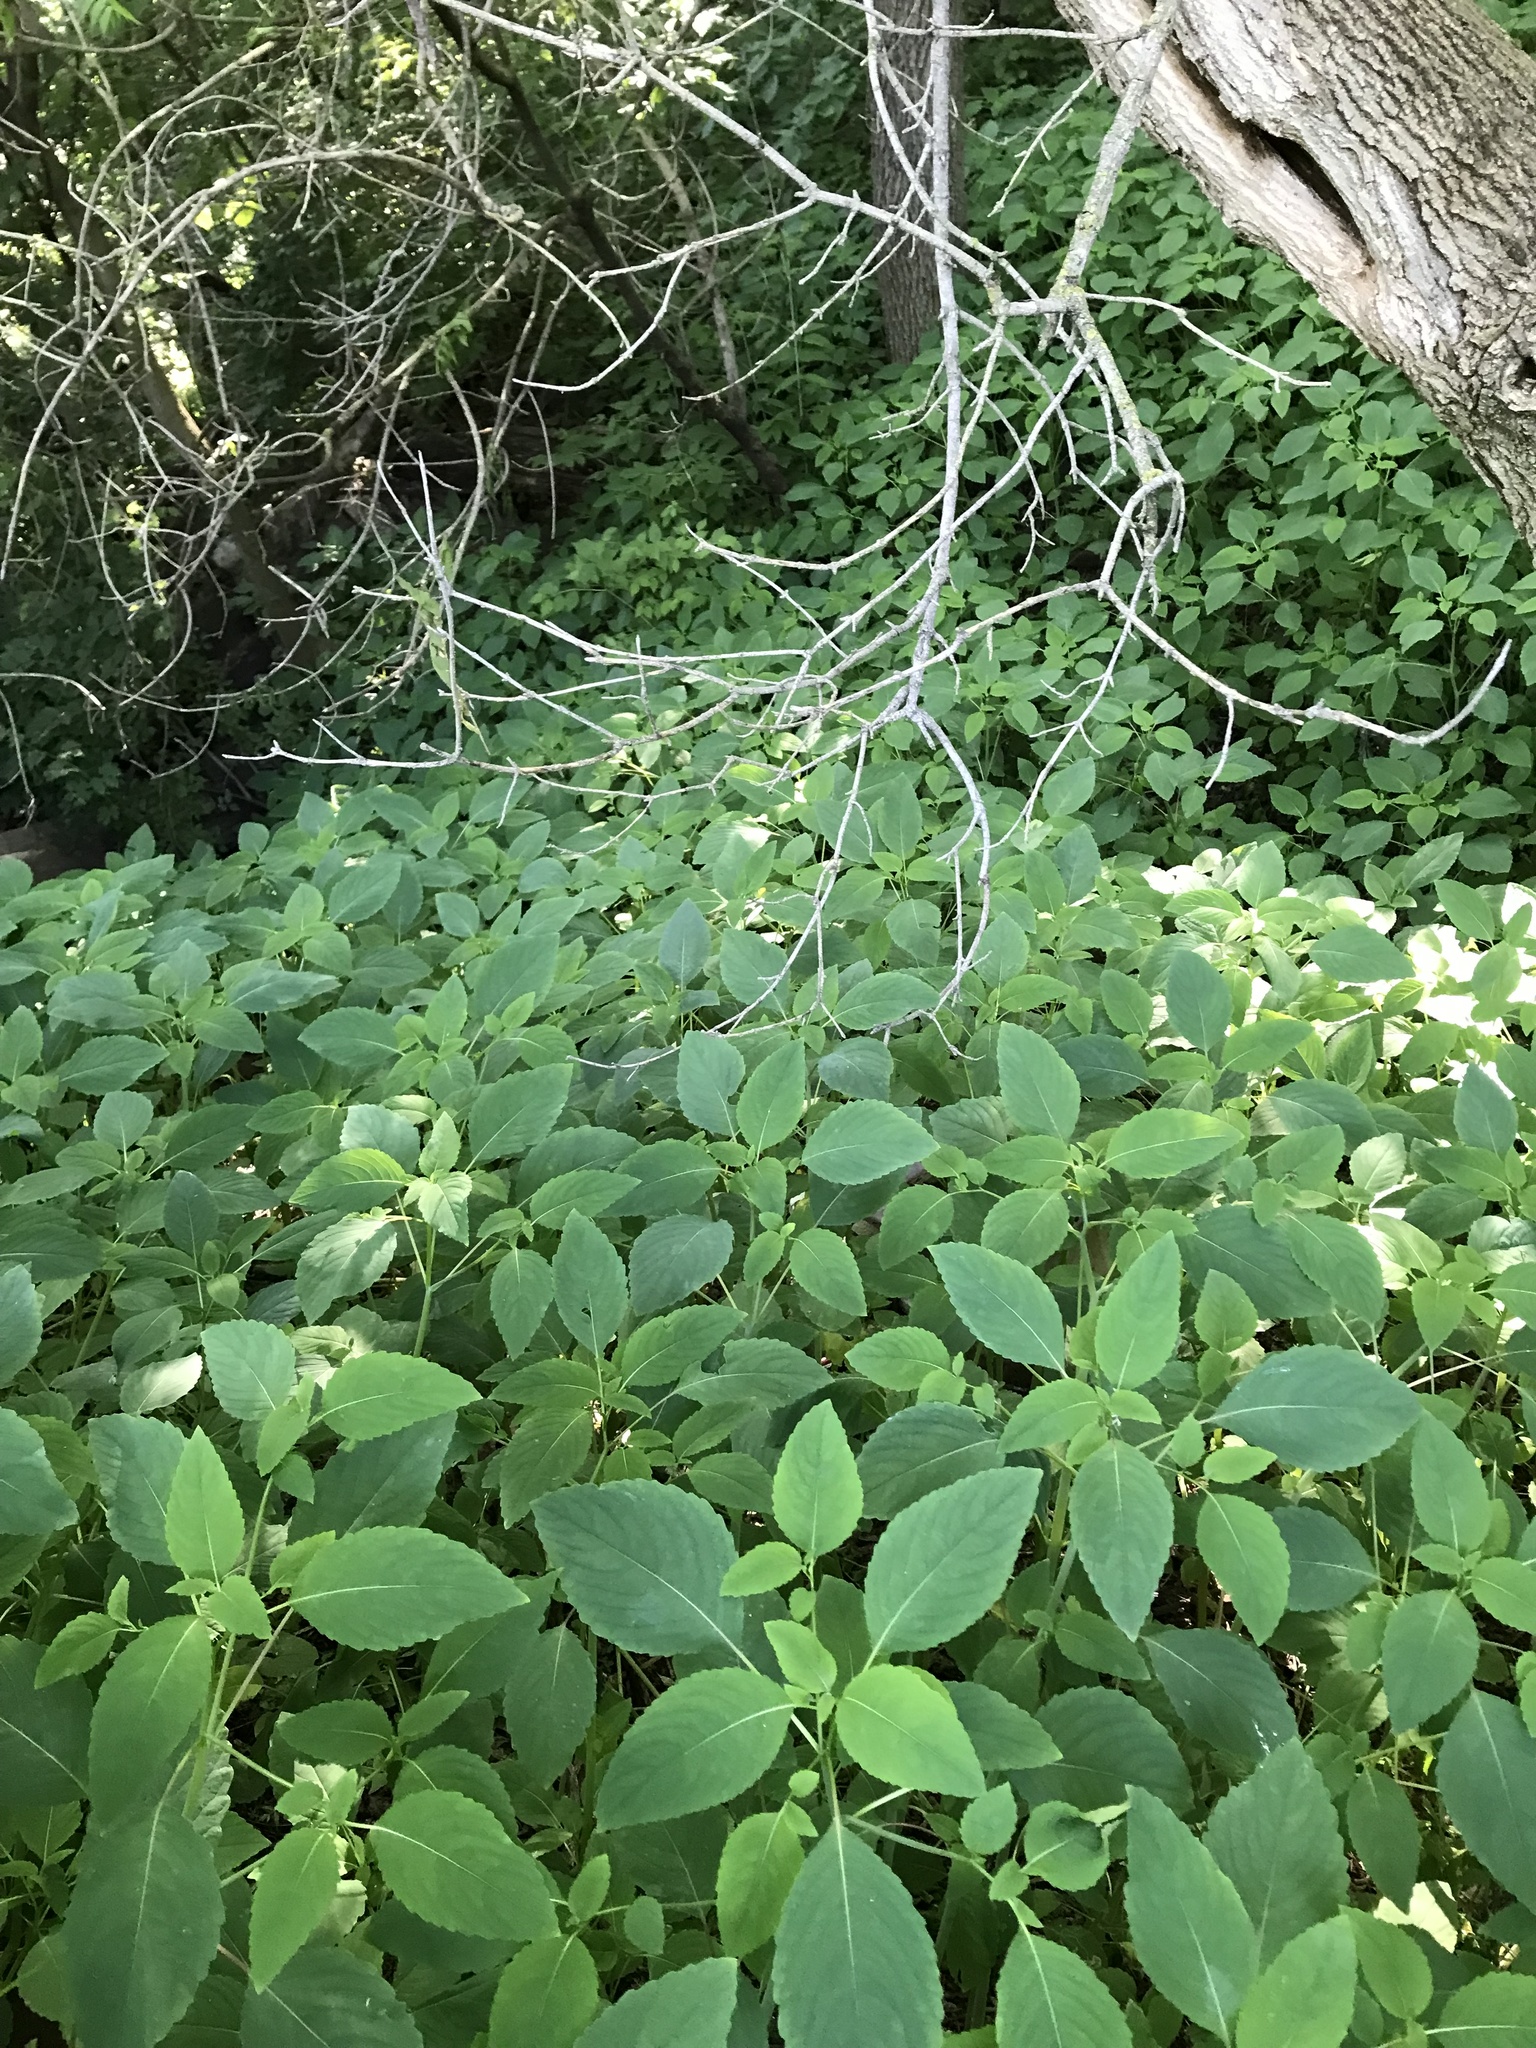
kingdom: Plantae
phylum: Tracheophyta
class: Magnoliopsida
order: Ericales
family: Balsaminaceae
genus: Impatiens
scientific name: Impatiens capensis
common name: Orange balsam
